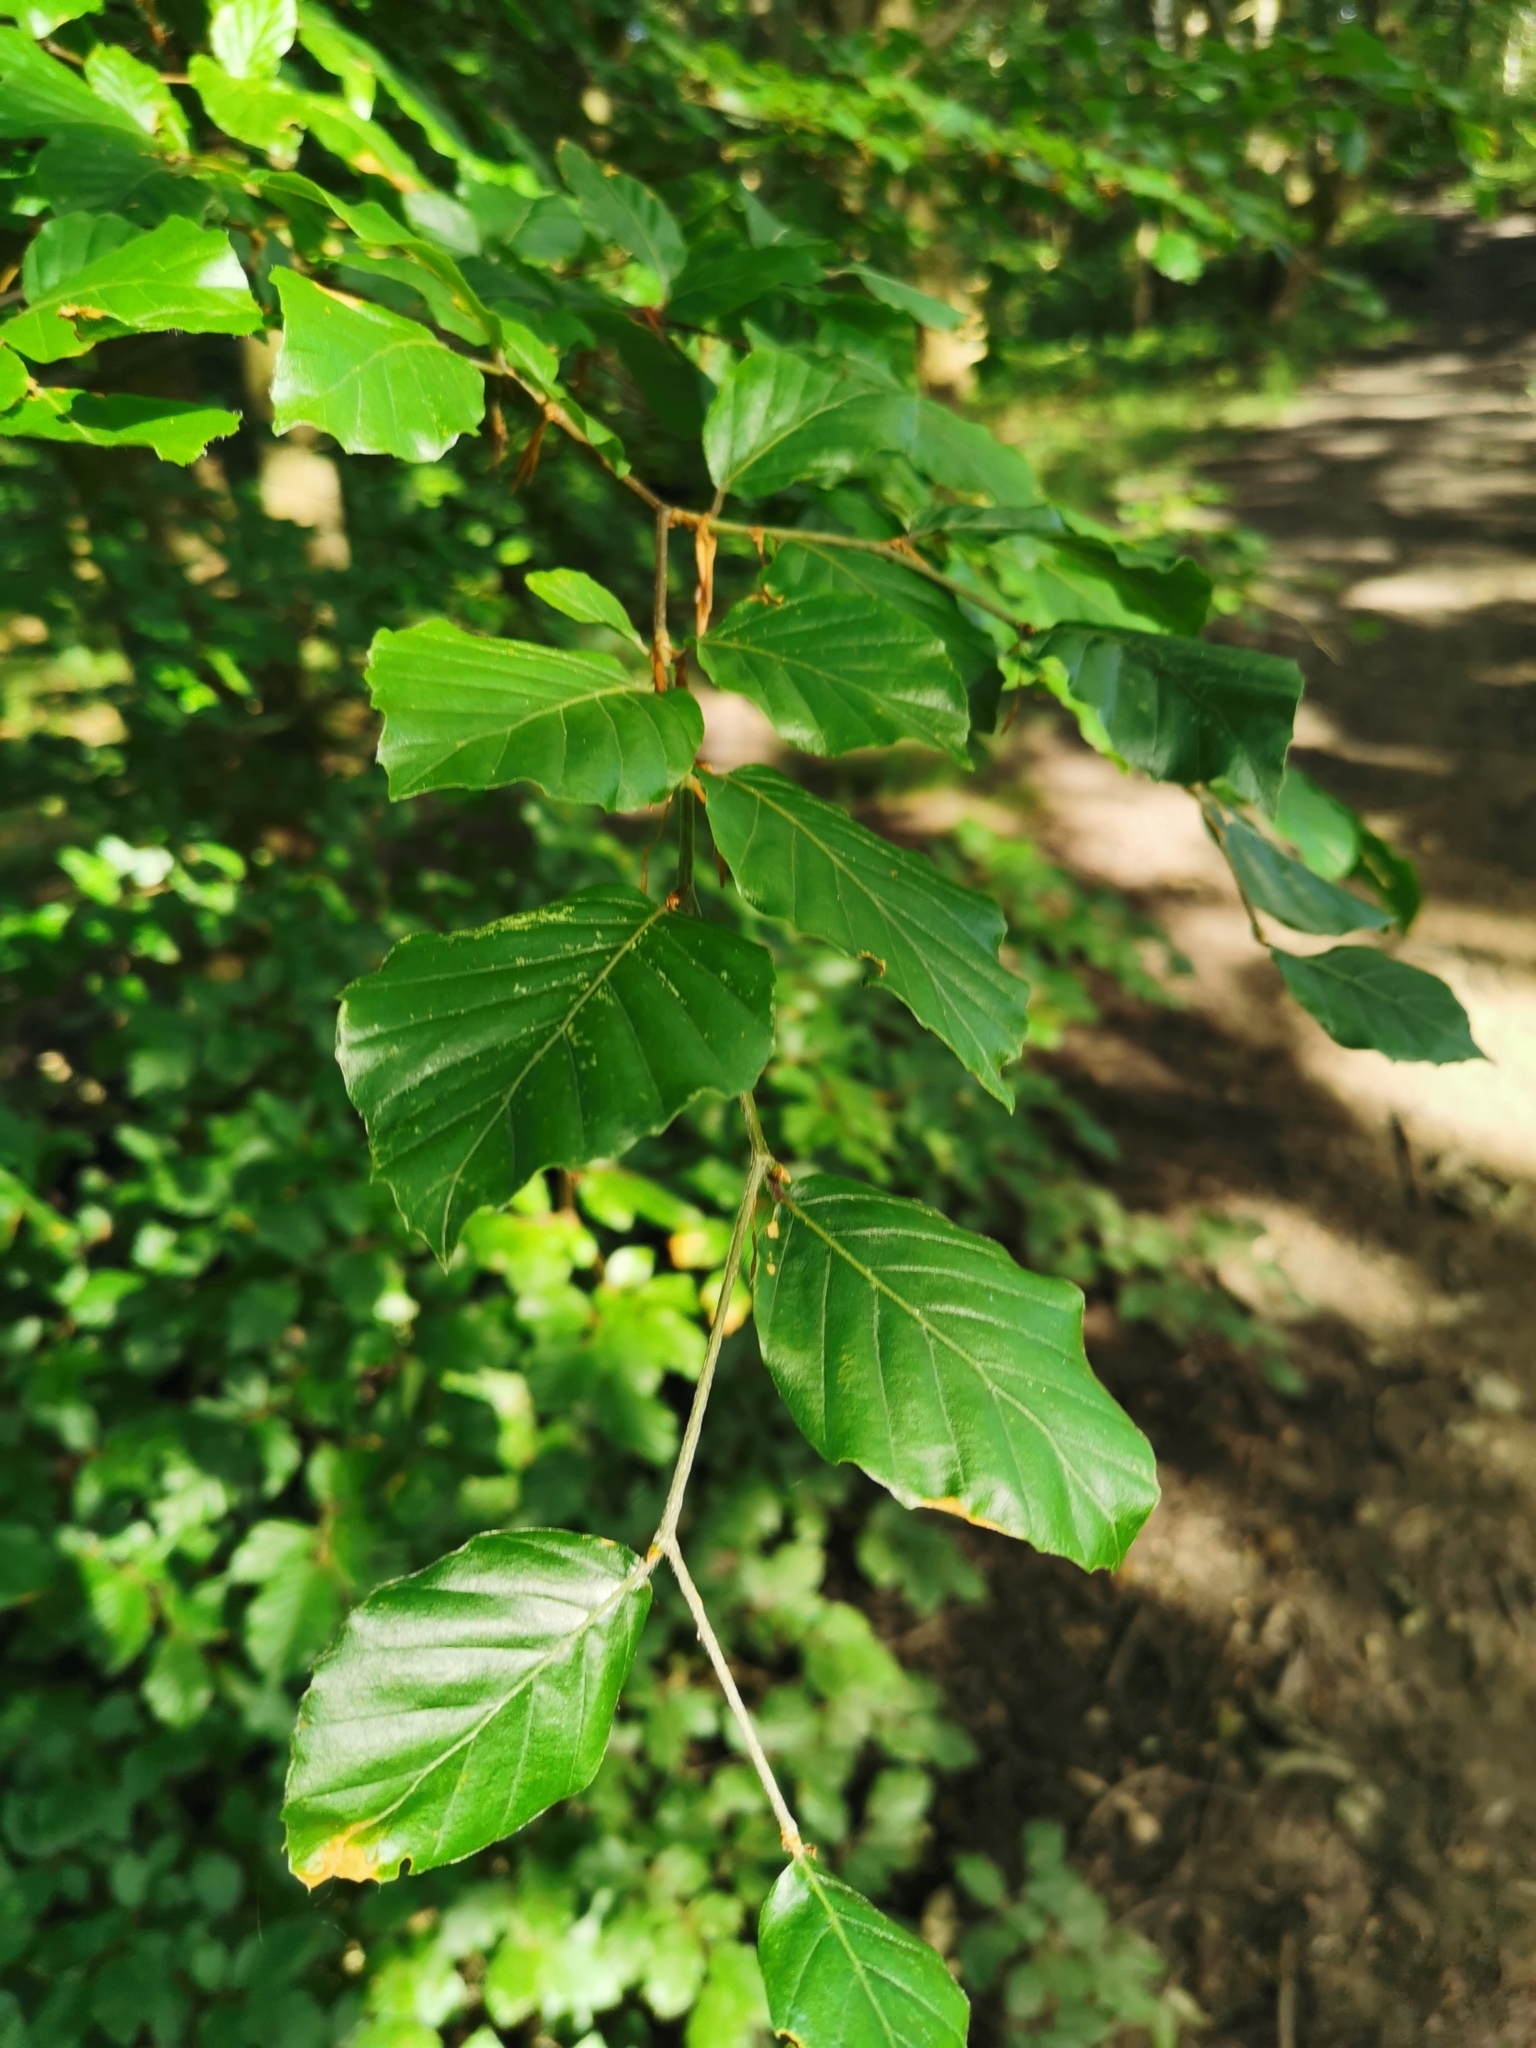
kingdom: Plantae
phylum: Tracheophyta
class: Magnoliopsida
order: Fagales
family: Fagaceae
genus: Fagus
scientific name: Fagus sylvatica
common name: Beech
